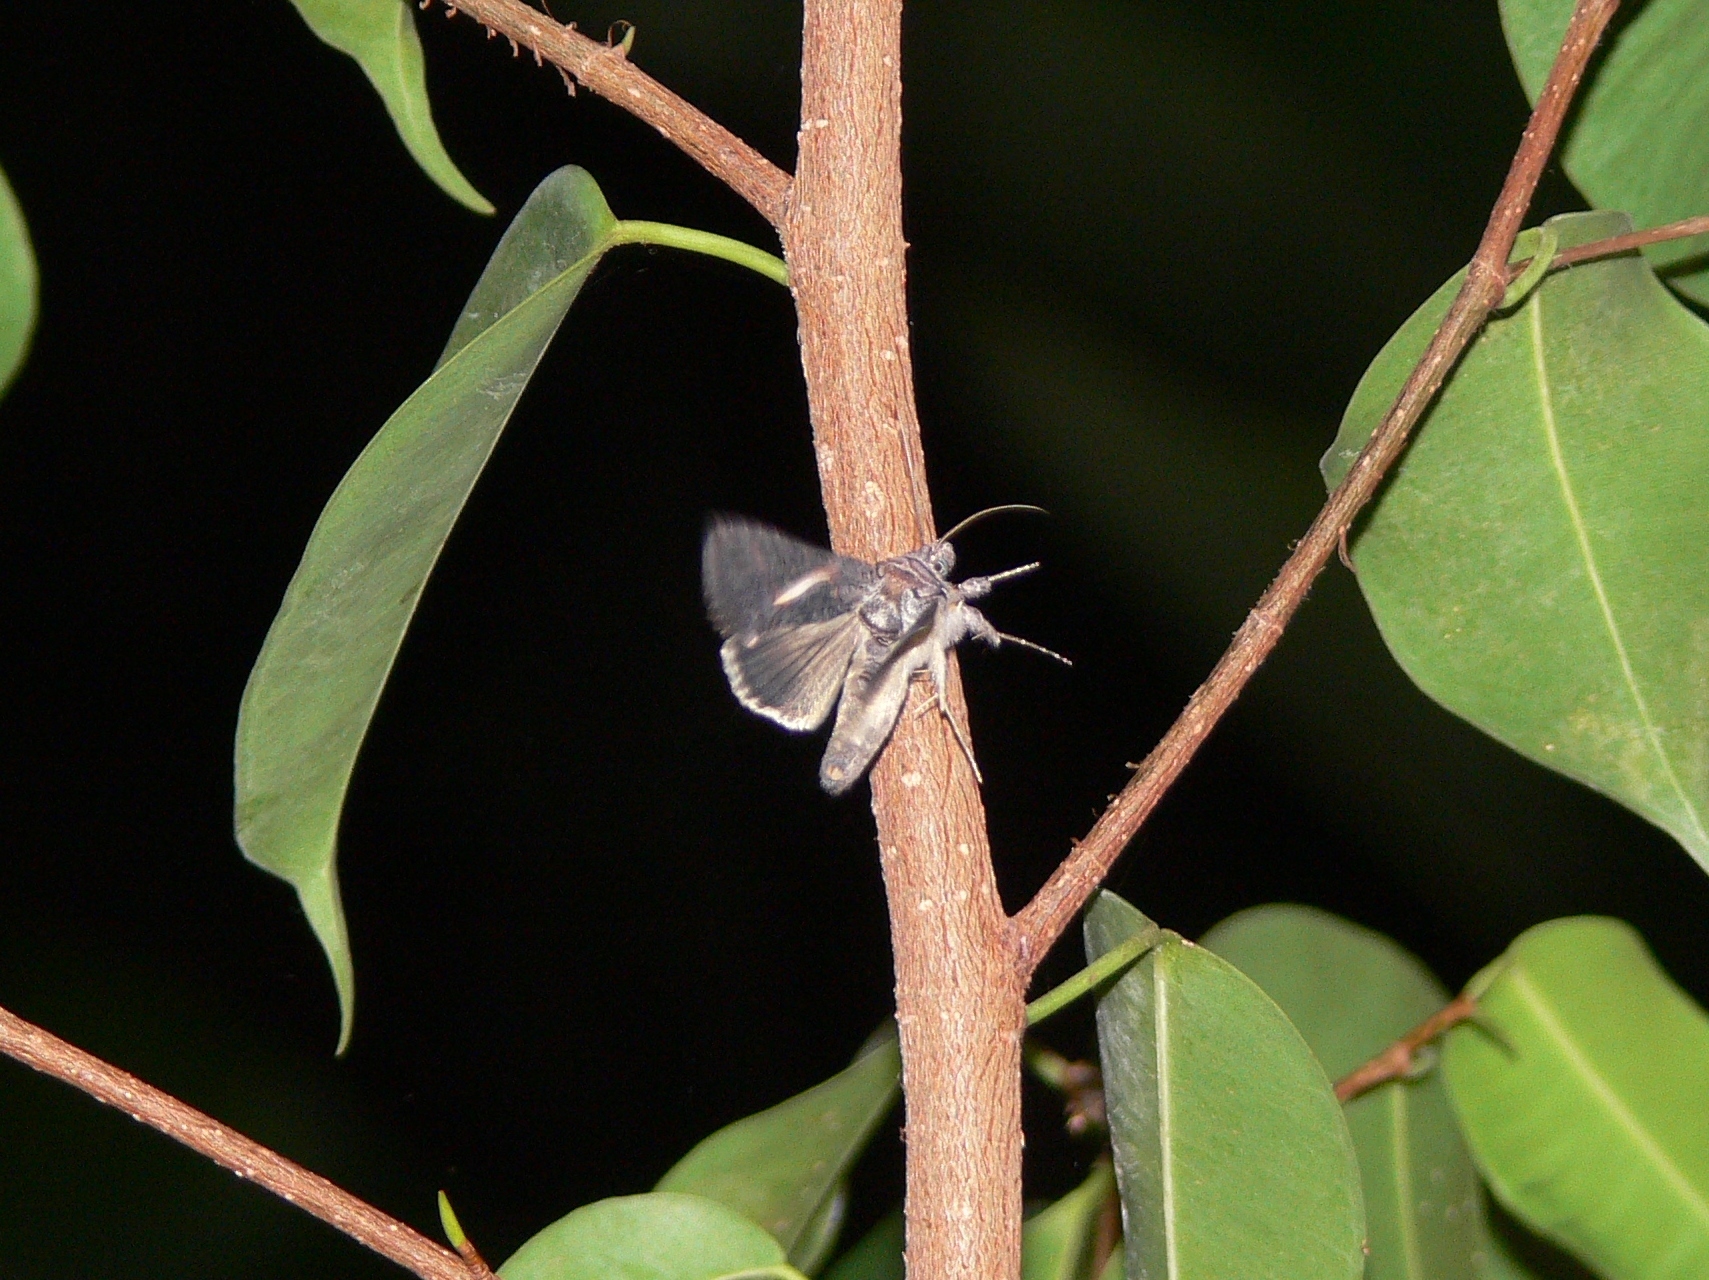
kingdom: Animalia
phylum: Arthropoda
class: Insecta
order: Lepidoptera
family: Noctuidae
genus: Vittaplusia
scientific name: Vittaplusia vittata
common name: Streaked plusia
